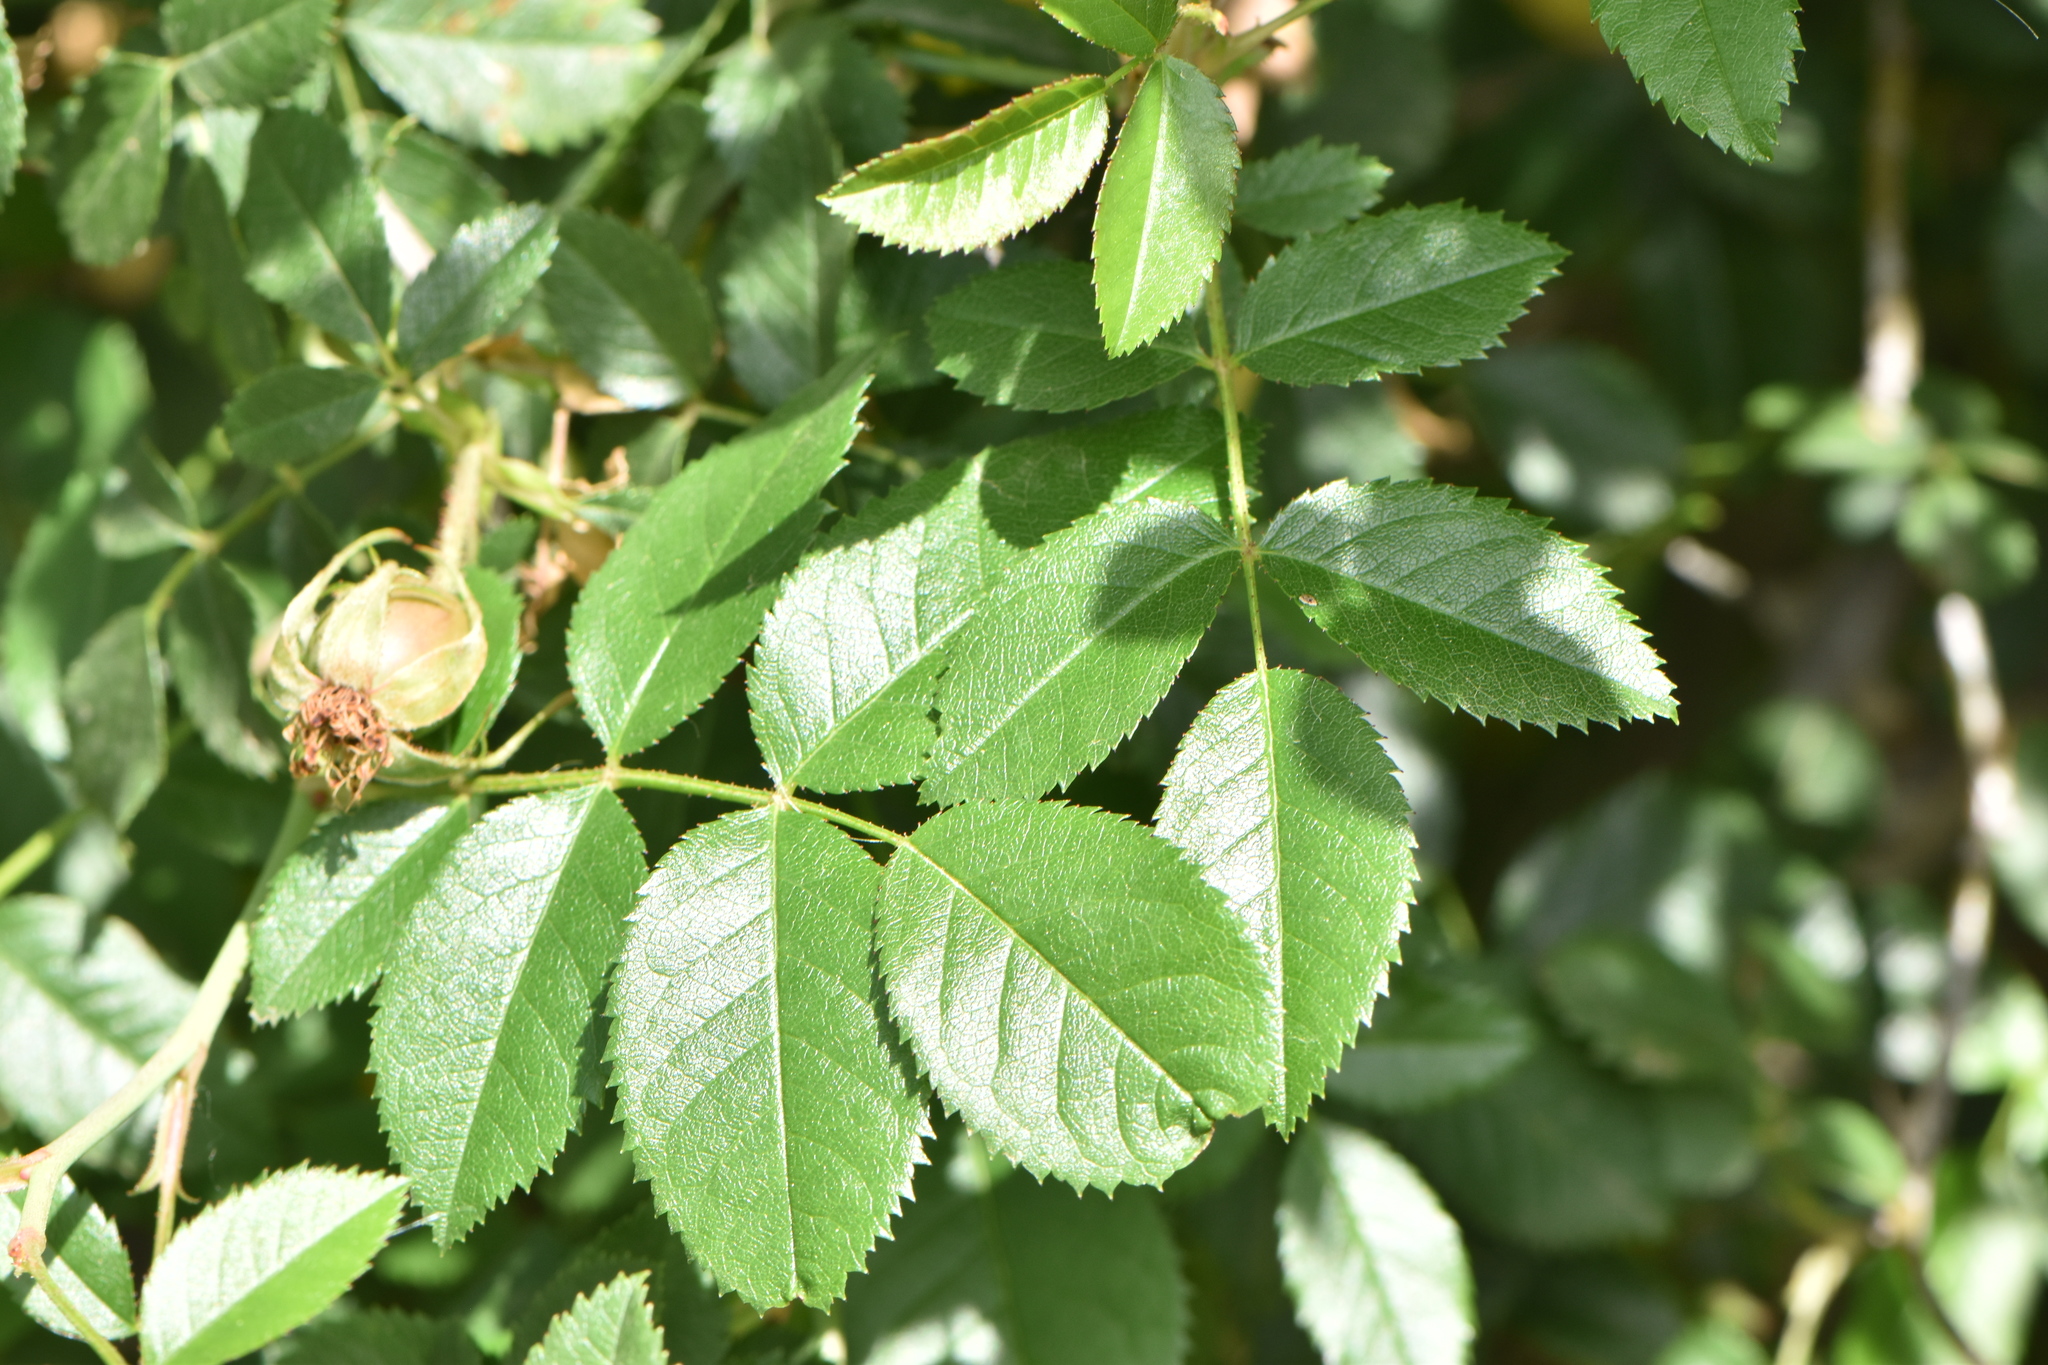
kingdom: Plantae
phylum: Tracheophyta
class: Magnoliopsida
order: Rosales
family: Rosaceae
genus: Rosa
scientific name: Rosa canina
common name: Dog rose
